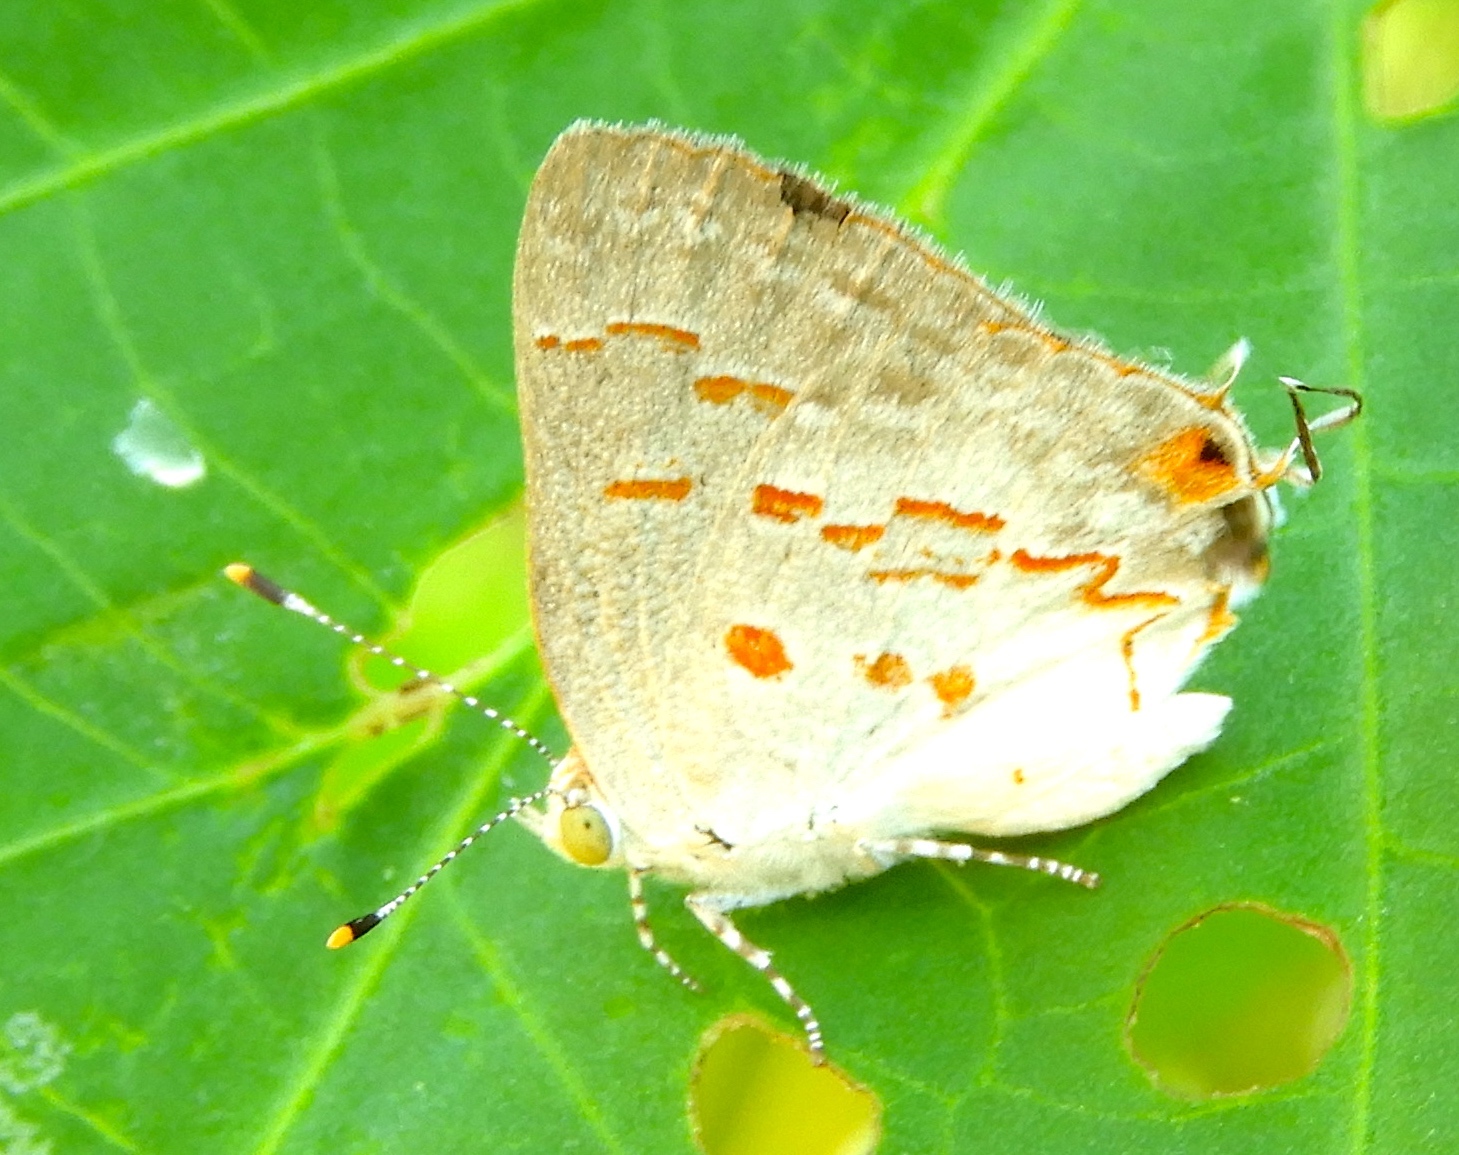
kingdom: Animalia
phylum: Arthropoda
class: Insecta
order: Lepidoptera
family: Lycaenidae
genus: Ministrymon
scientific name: Ministrymon
